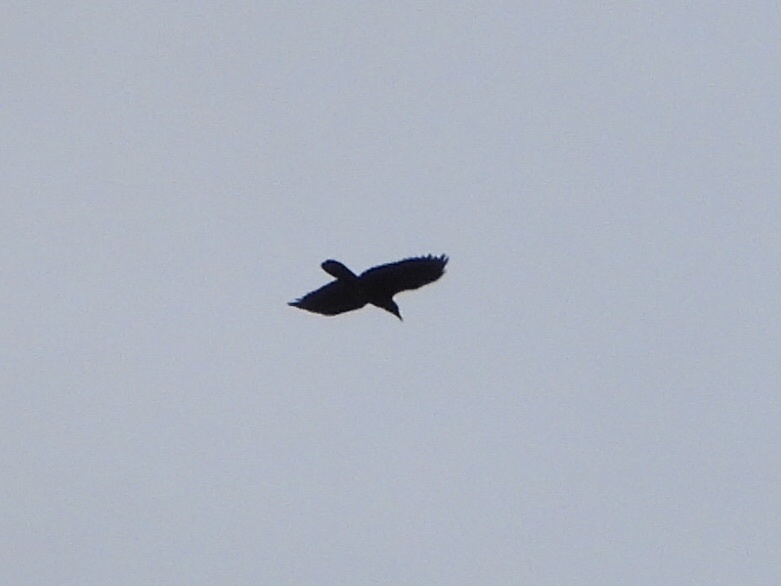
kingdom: Animalia
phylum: Chordata
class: Aves
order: Passeriformes
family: Corvidae
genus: Corvus
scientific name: Corvus corax
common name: Common raven
